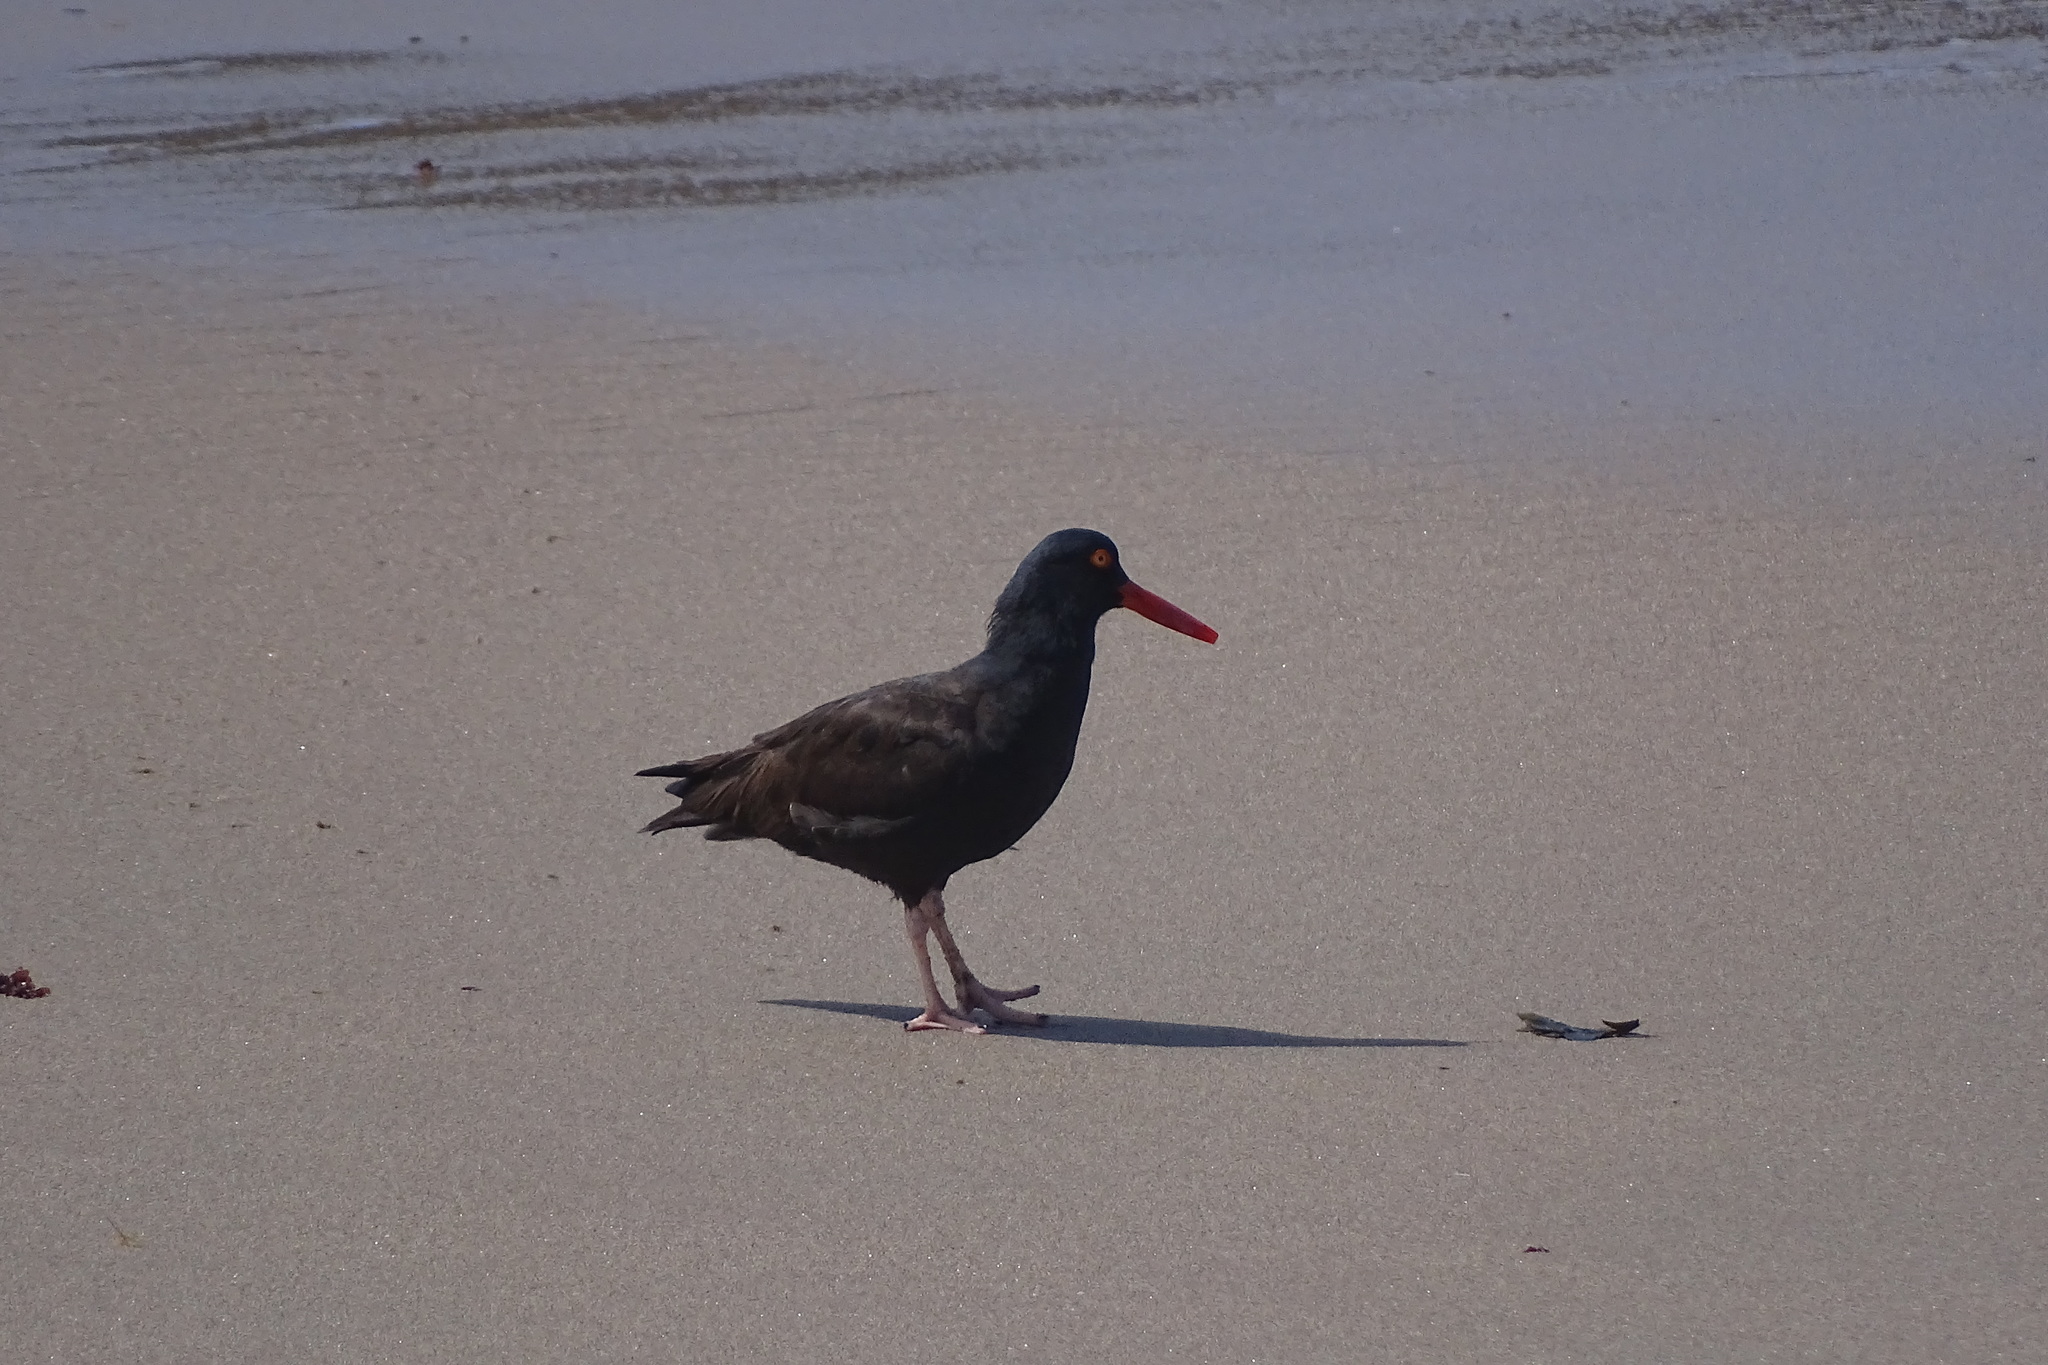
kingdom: Animalia
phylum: Chordata
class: Aves
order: Charadriiformes
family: Haematopodidae
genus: Haematopus
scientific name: Haematopus bachmani
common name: Black oystercatcher
